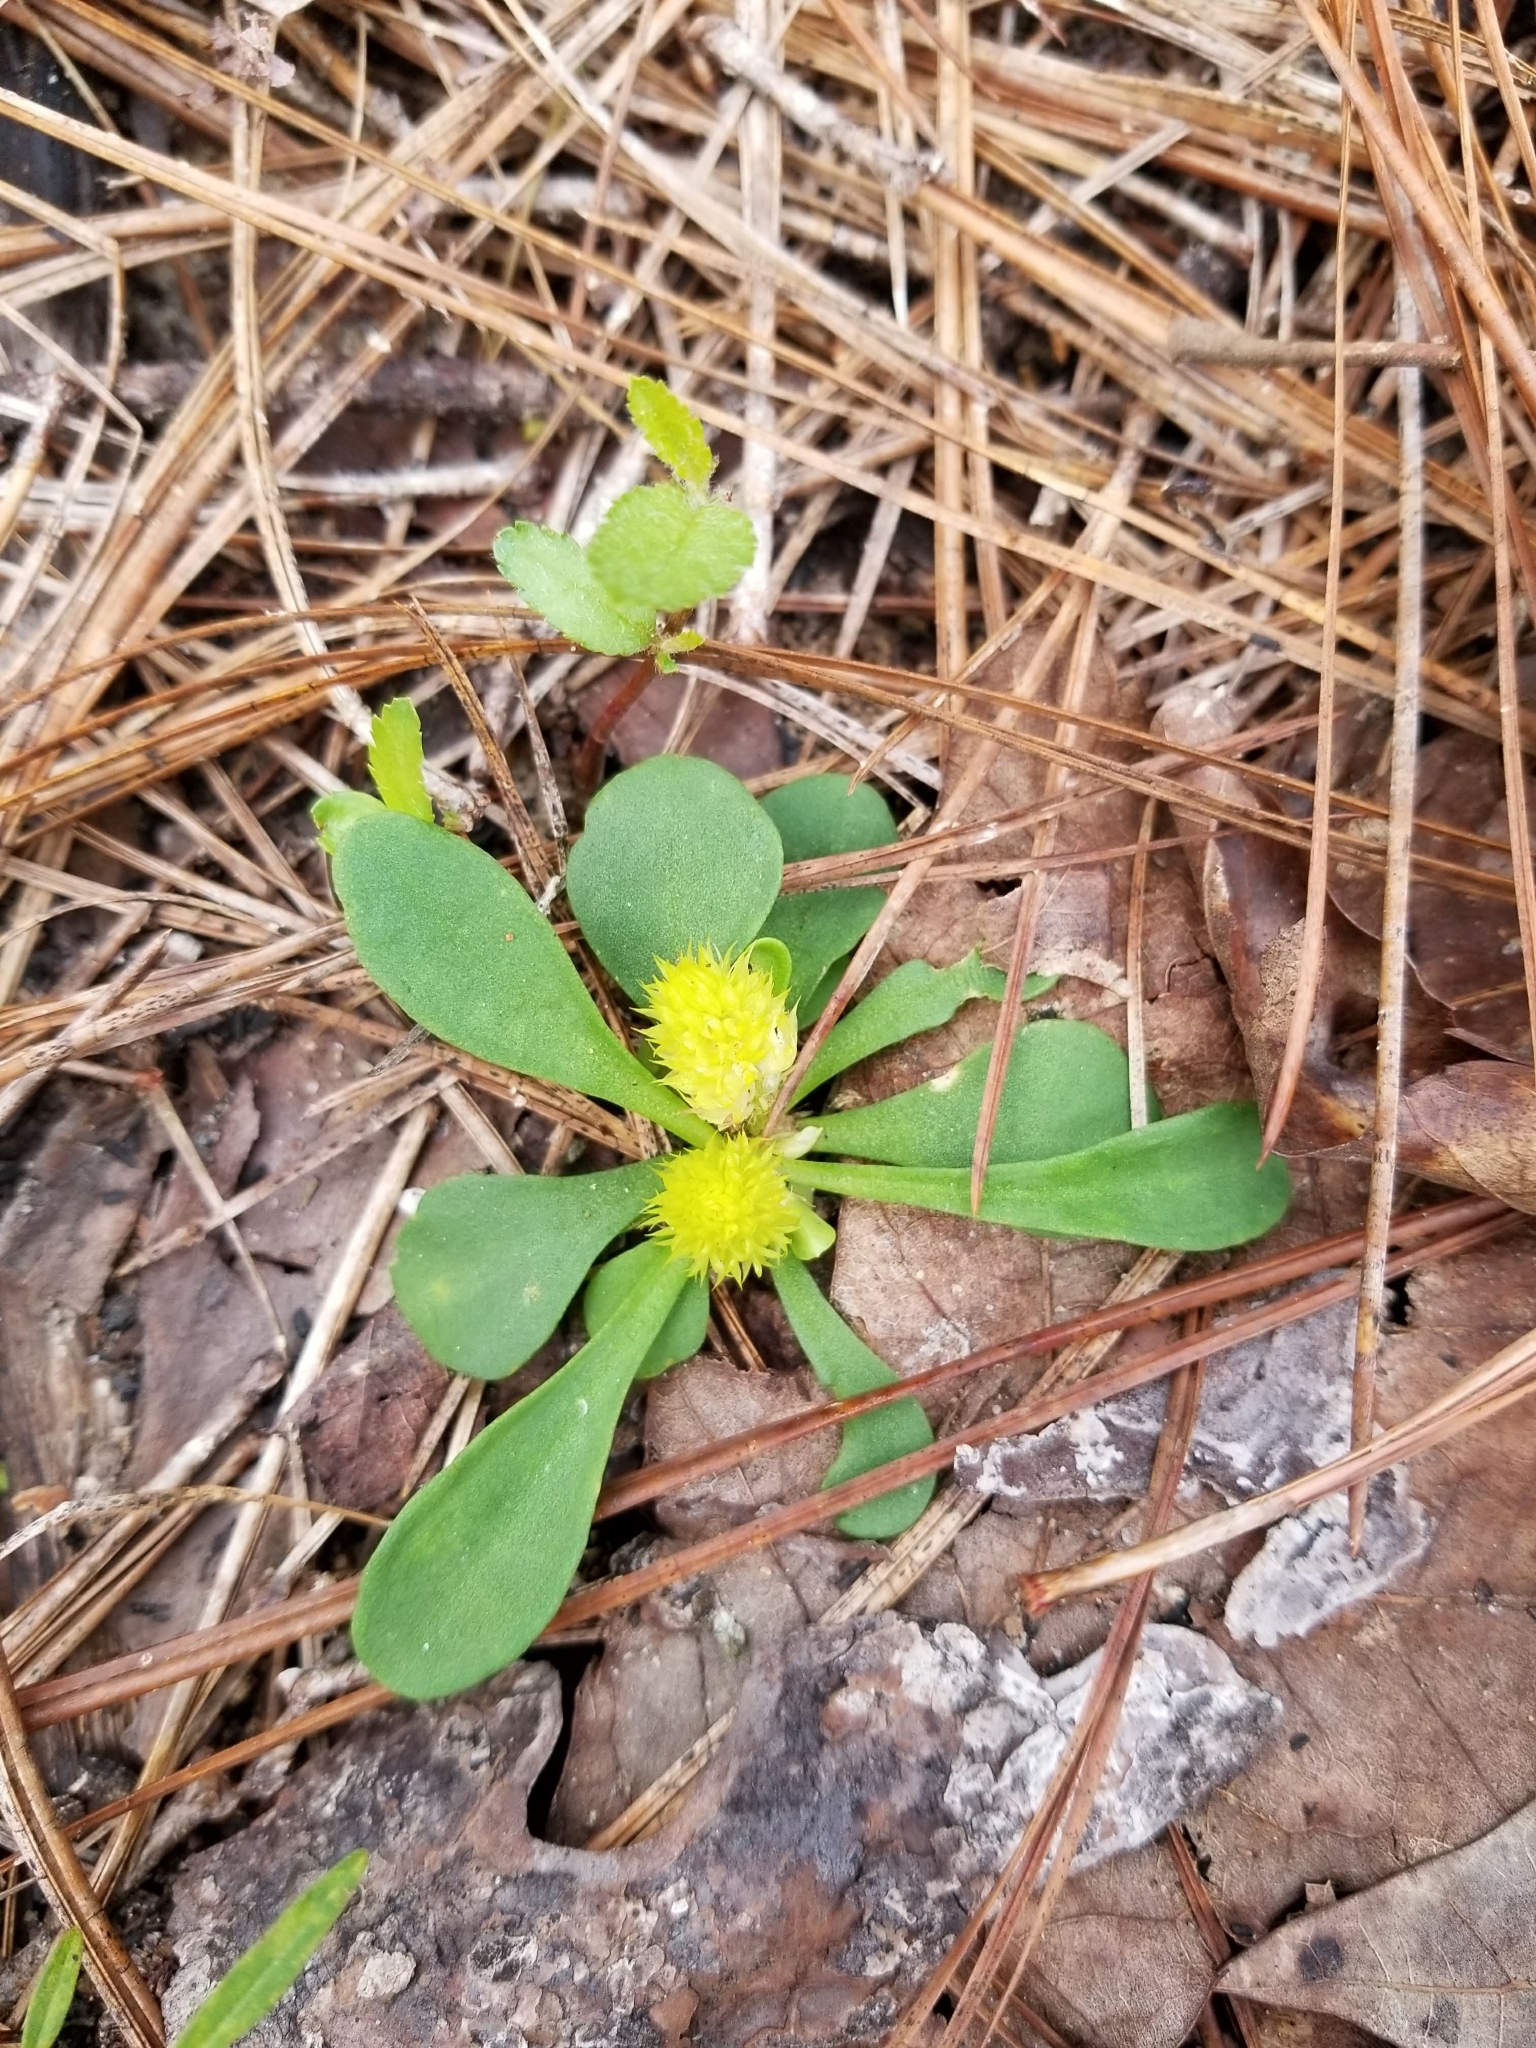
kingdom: Plantae
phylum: Tracheophyta
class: Magnoliopsida
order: Fabales
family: Polygalaceae
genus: Polygala
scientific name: Polygala nana
